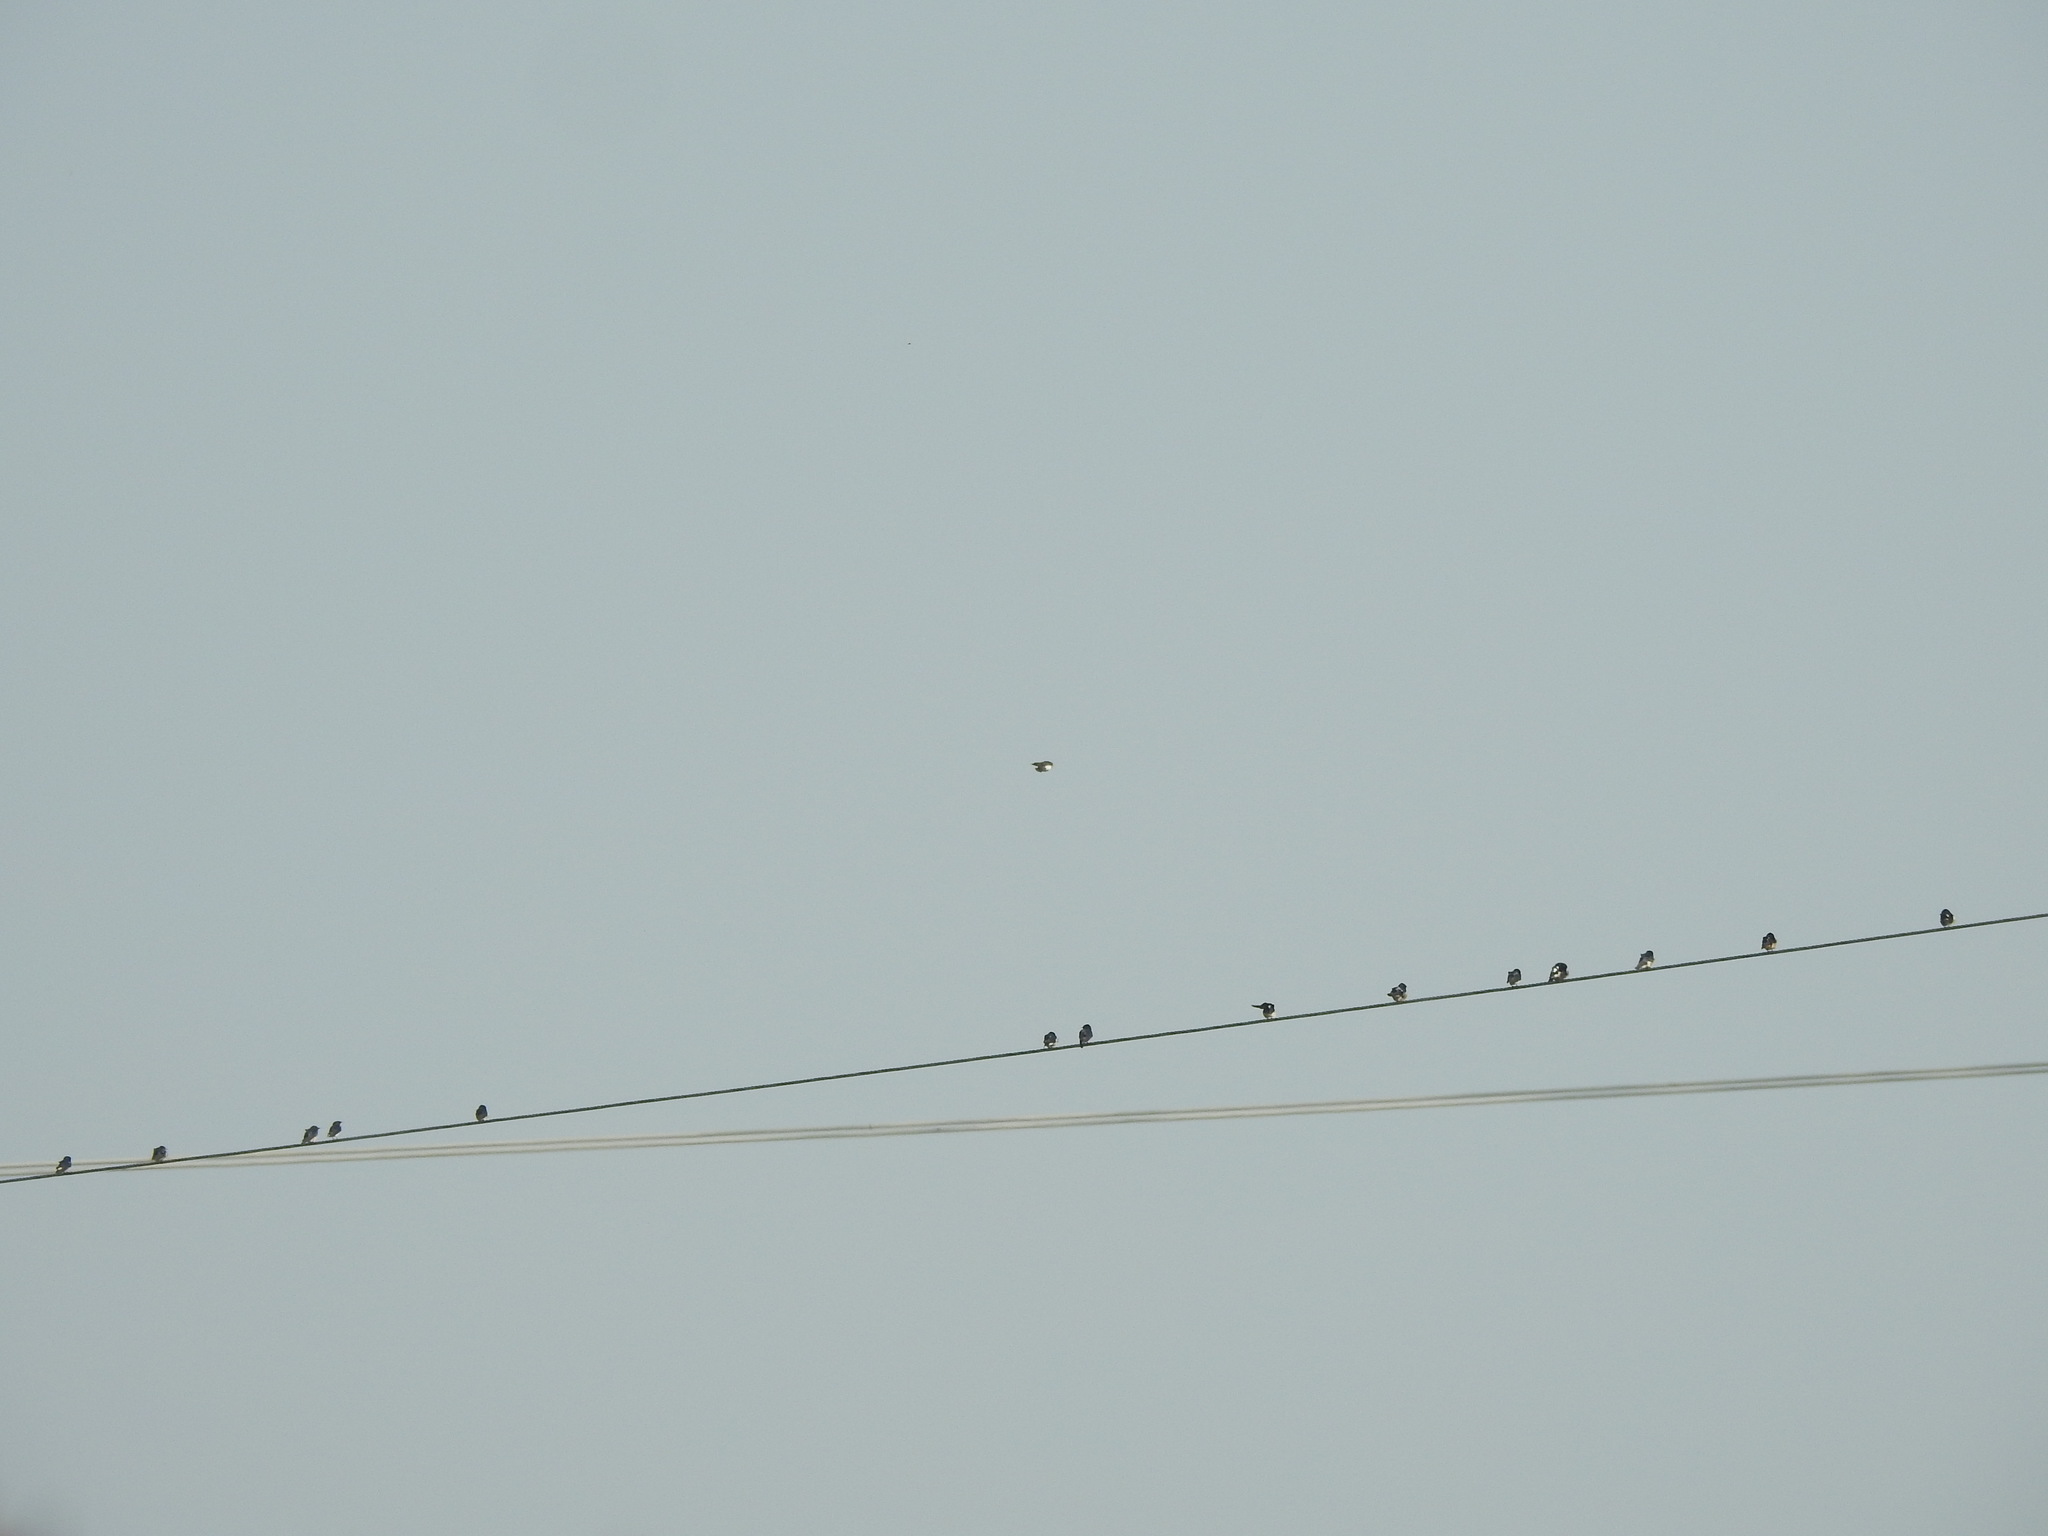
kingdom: Animalia
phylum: Chordata
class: Aves
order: Passeriformes
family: Hirundinidae
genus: Hirundo
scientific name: Hirundo rustica
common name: Barn swallow
